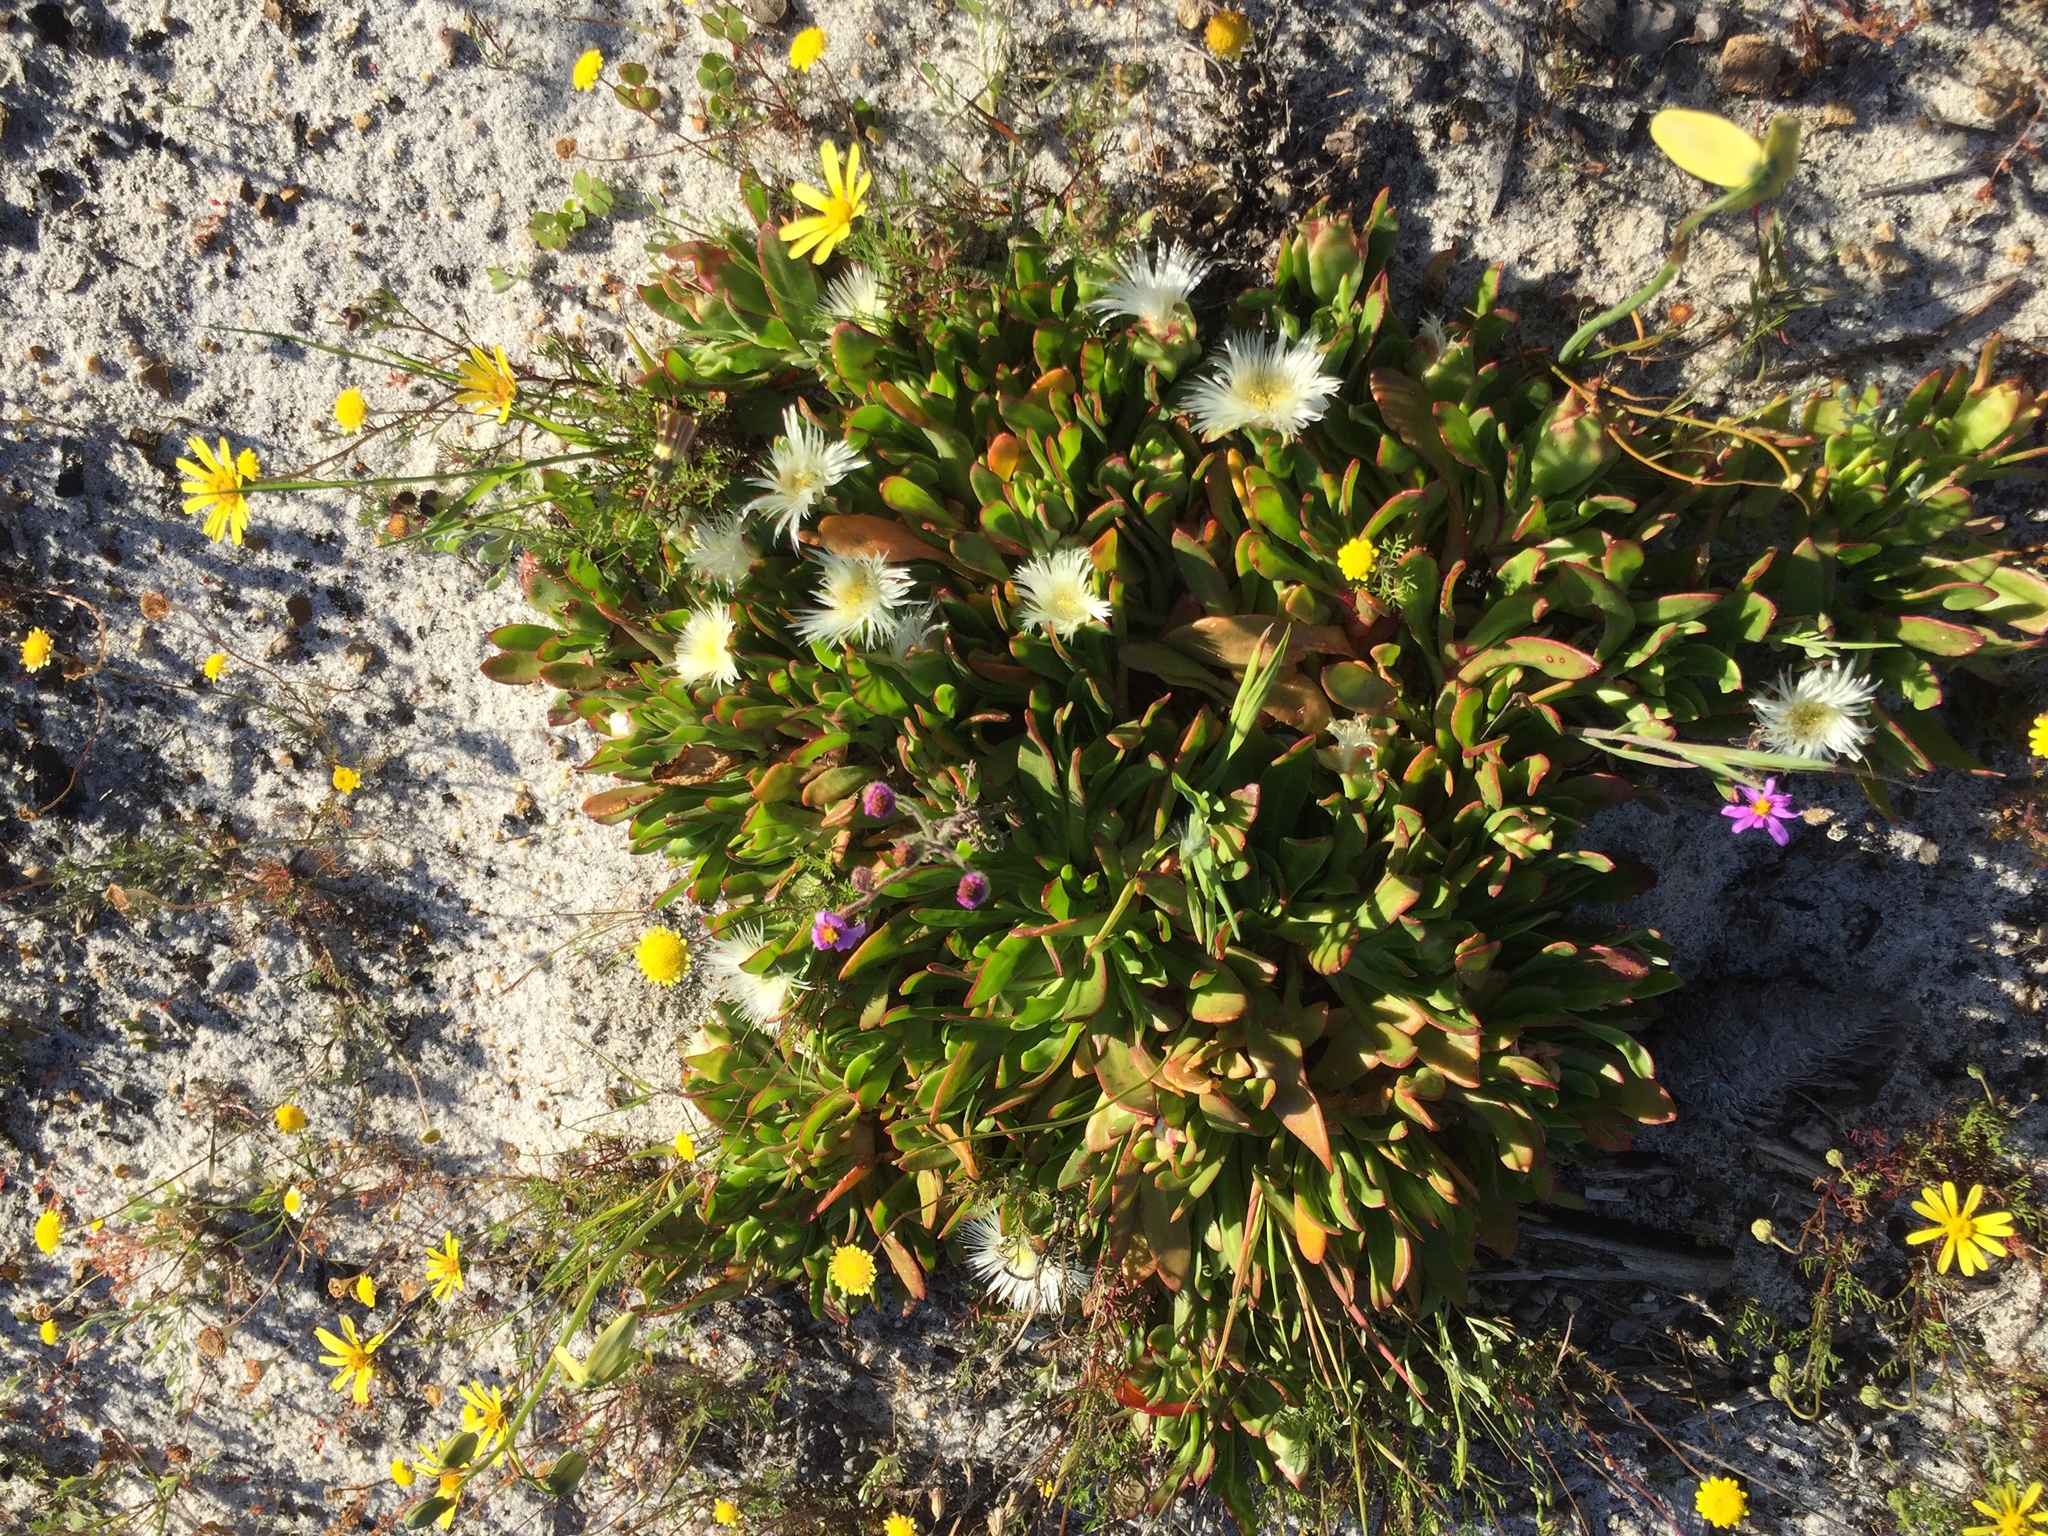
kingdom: Plantae
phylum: Tracheophyta
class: Magnoliopsida
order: Caryophyllales
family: Aizoaceae
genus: Skiatophytum
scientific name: Skiatophytum tripolium
